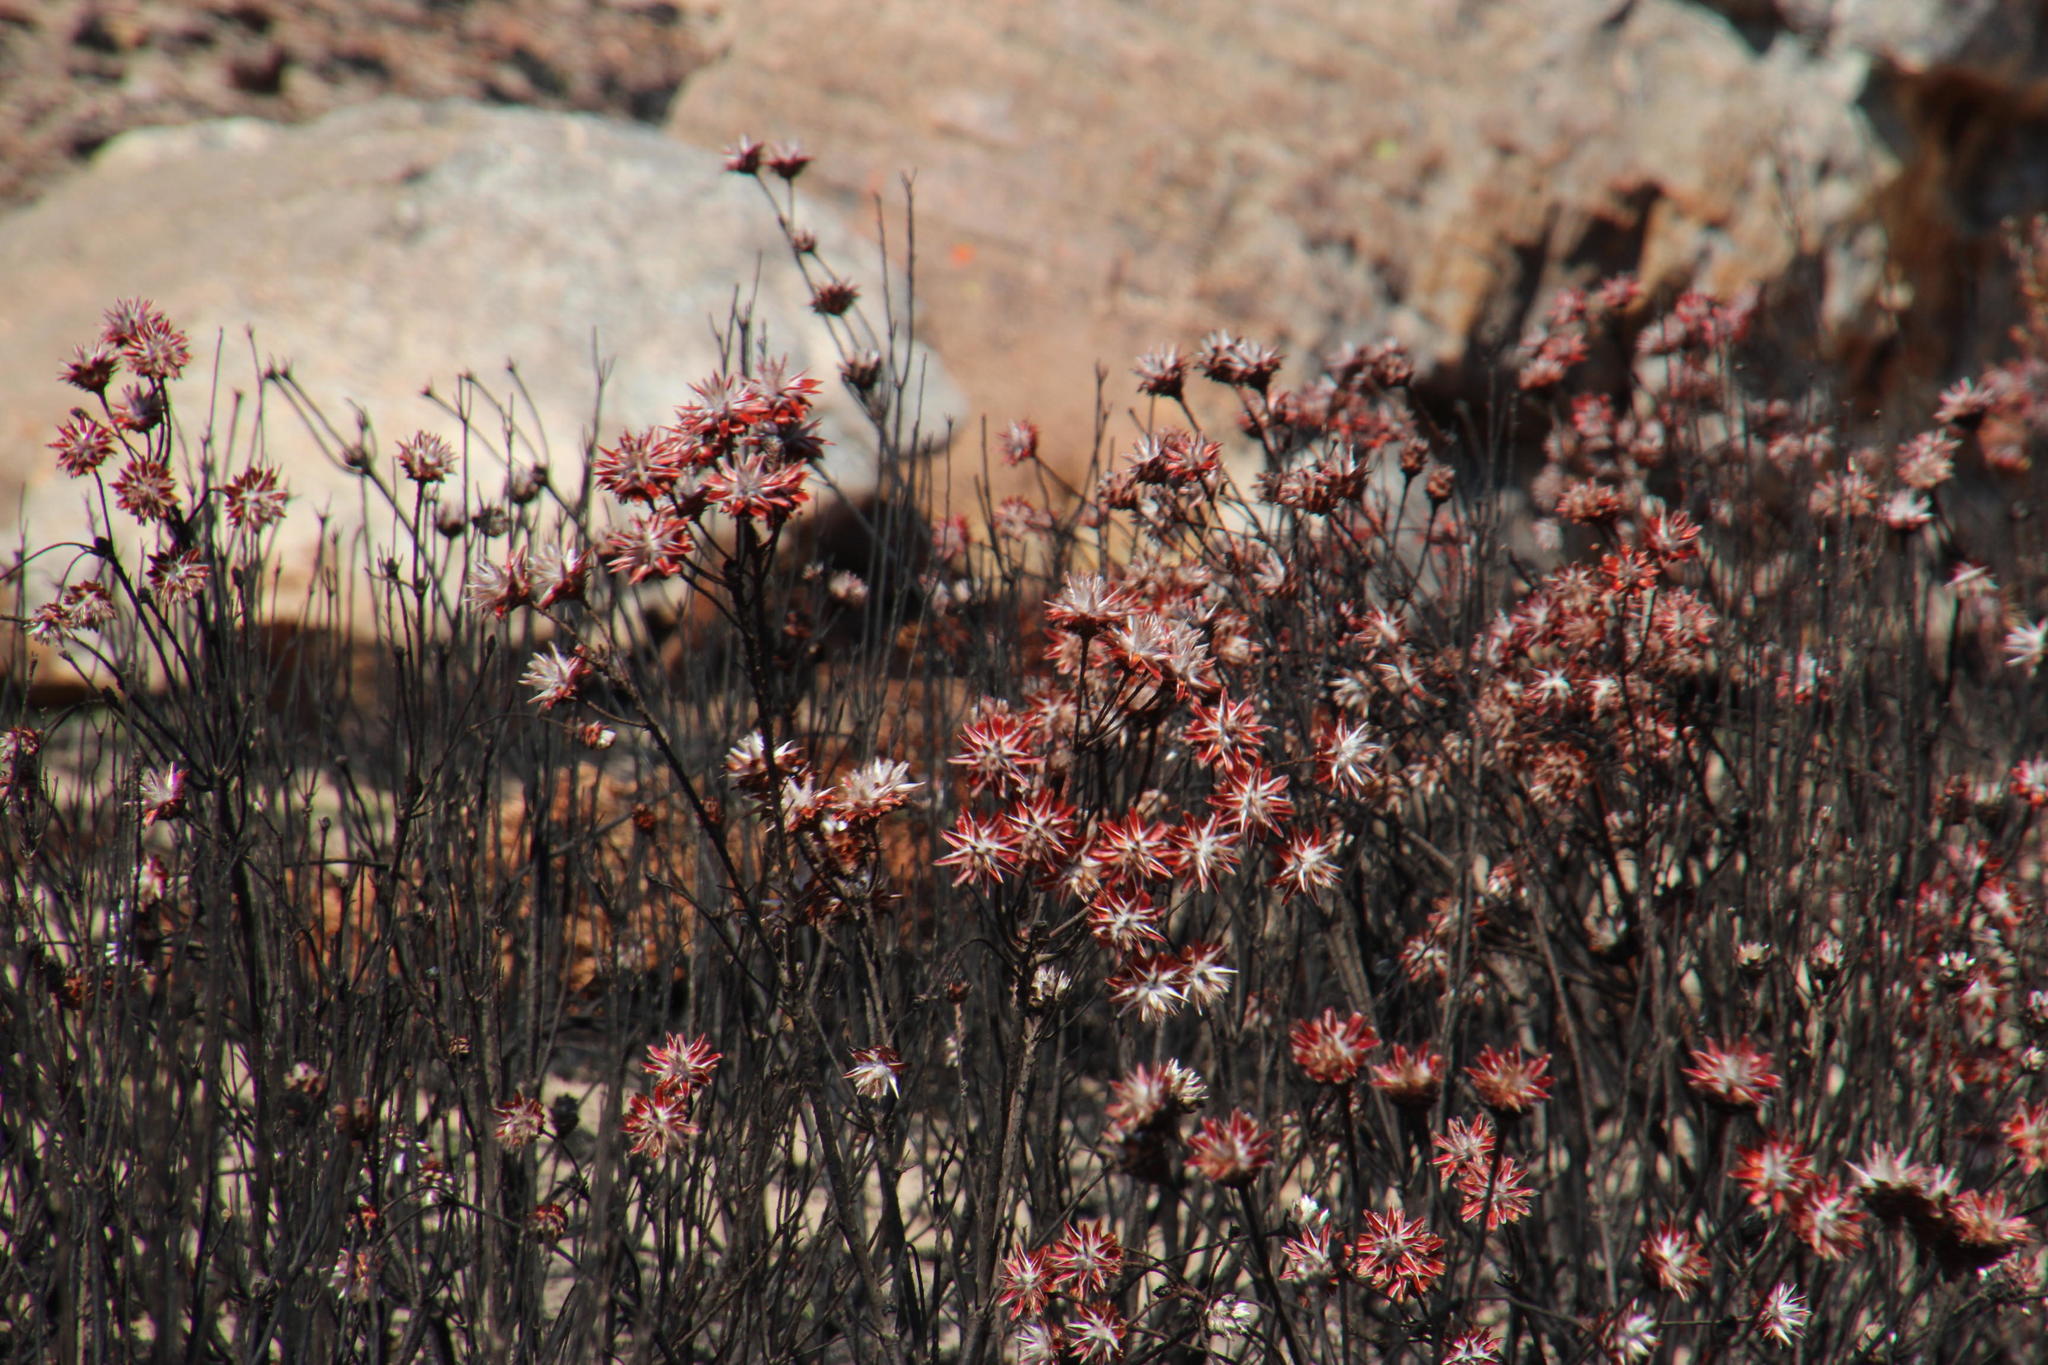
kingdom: Plantae
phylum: Tracheophyta
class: Magnoliopsida
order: Proteales
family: Proteaceae
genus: Leucadendron
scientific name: Leucadendron rubrum
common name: Spinning top
